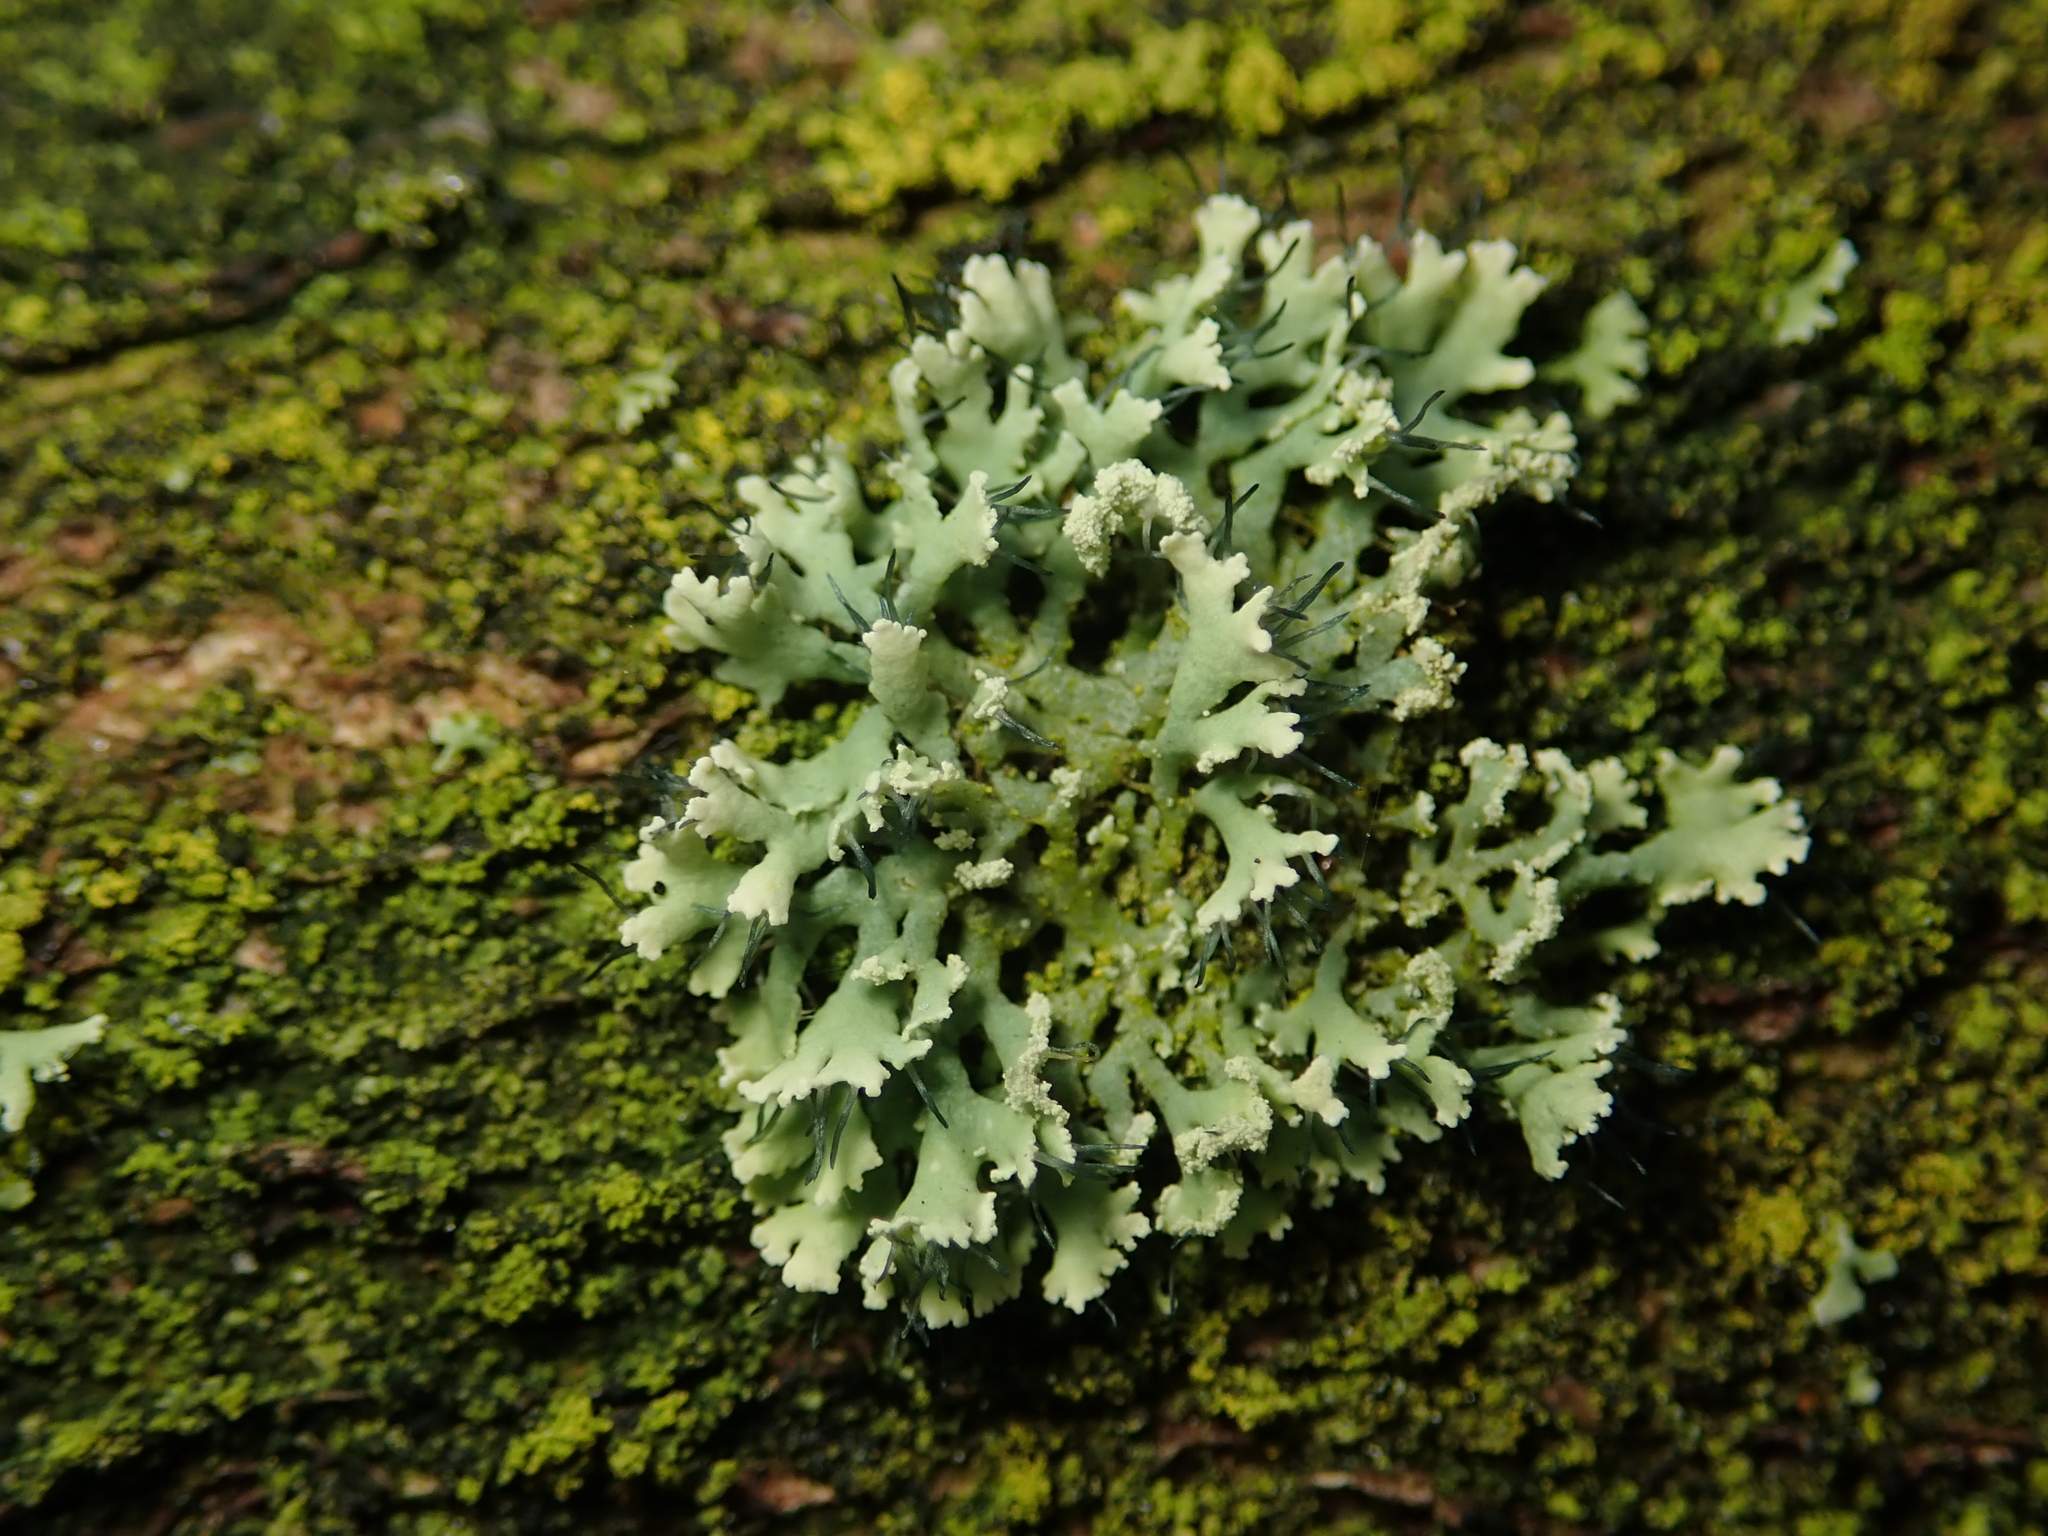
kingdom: Fungi
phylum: Ascomycota
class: Lecanoromycetes
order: Caliciales
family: Physciaceae
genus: Physcia
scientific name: Physcia tenella
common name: Fringed rosette lichen
